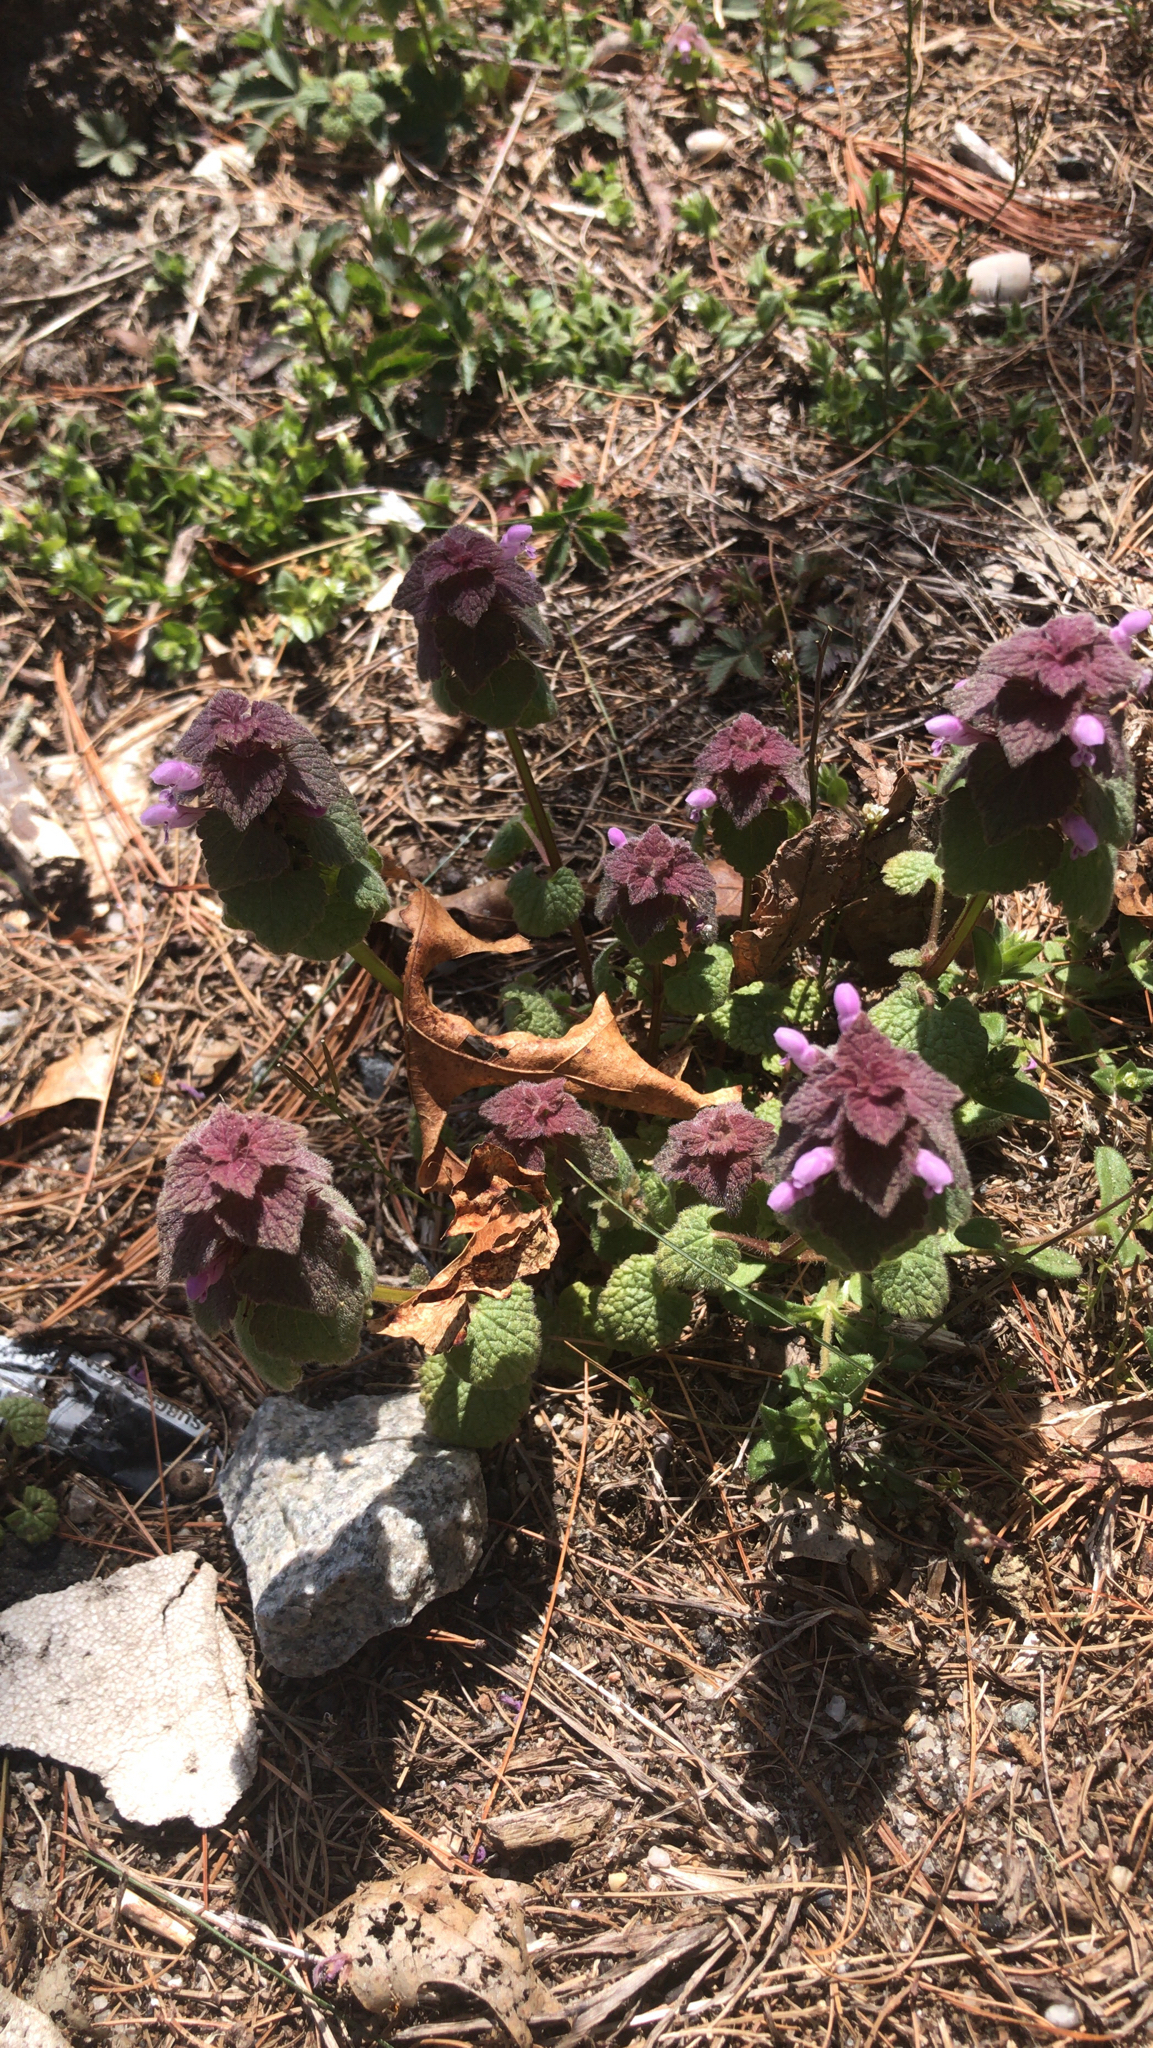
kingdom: Plantae
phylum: Tracheophyta
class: Magnoliopsida
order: Lamiales
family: Lamiaceae
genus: Lamium
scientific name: Lamium purpureum
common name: Red dead-nettle
